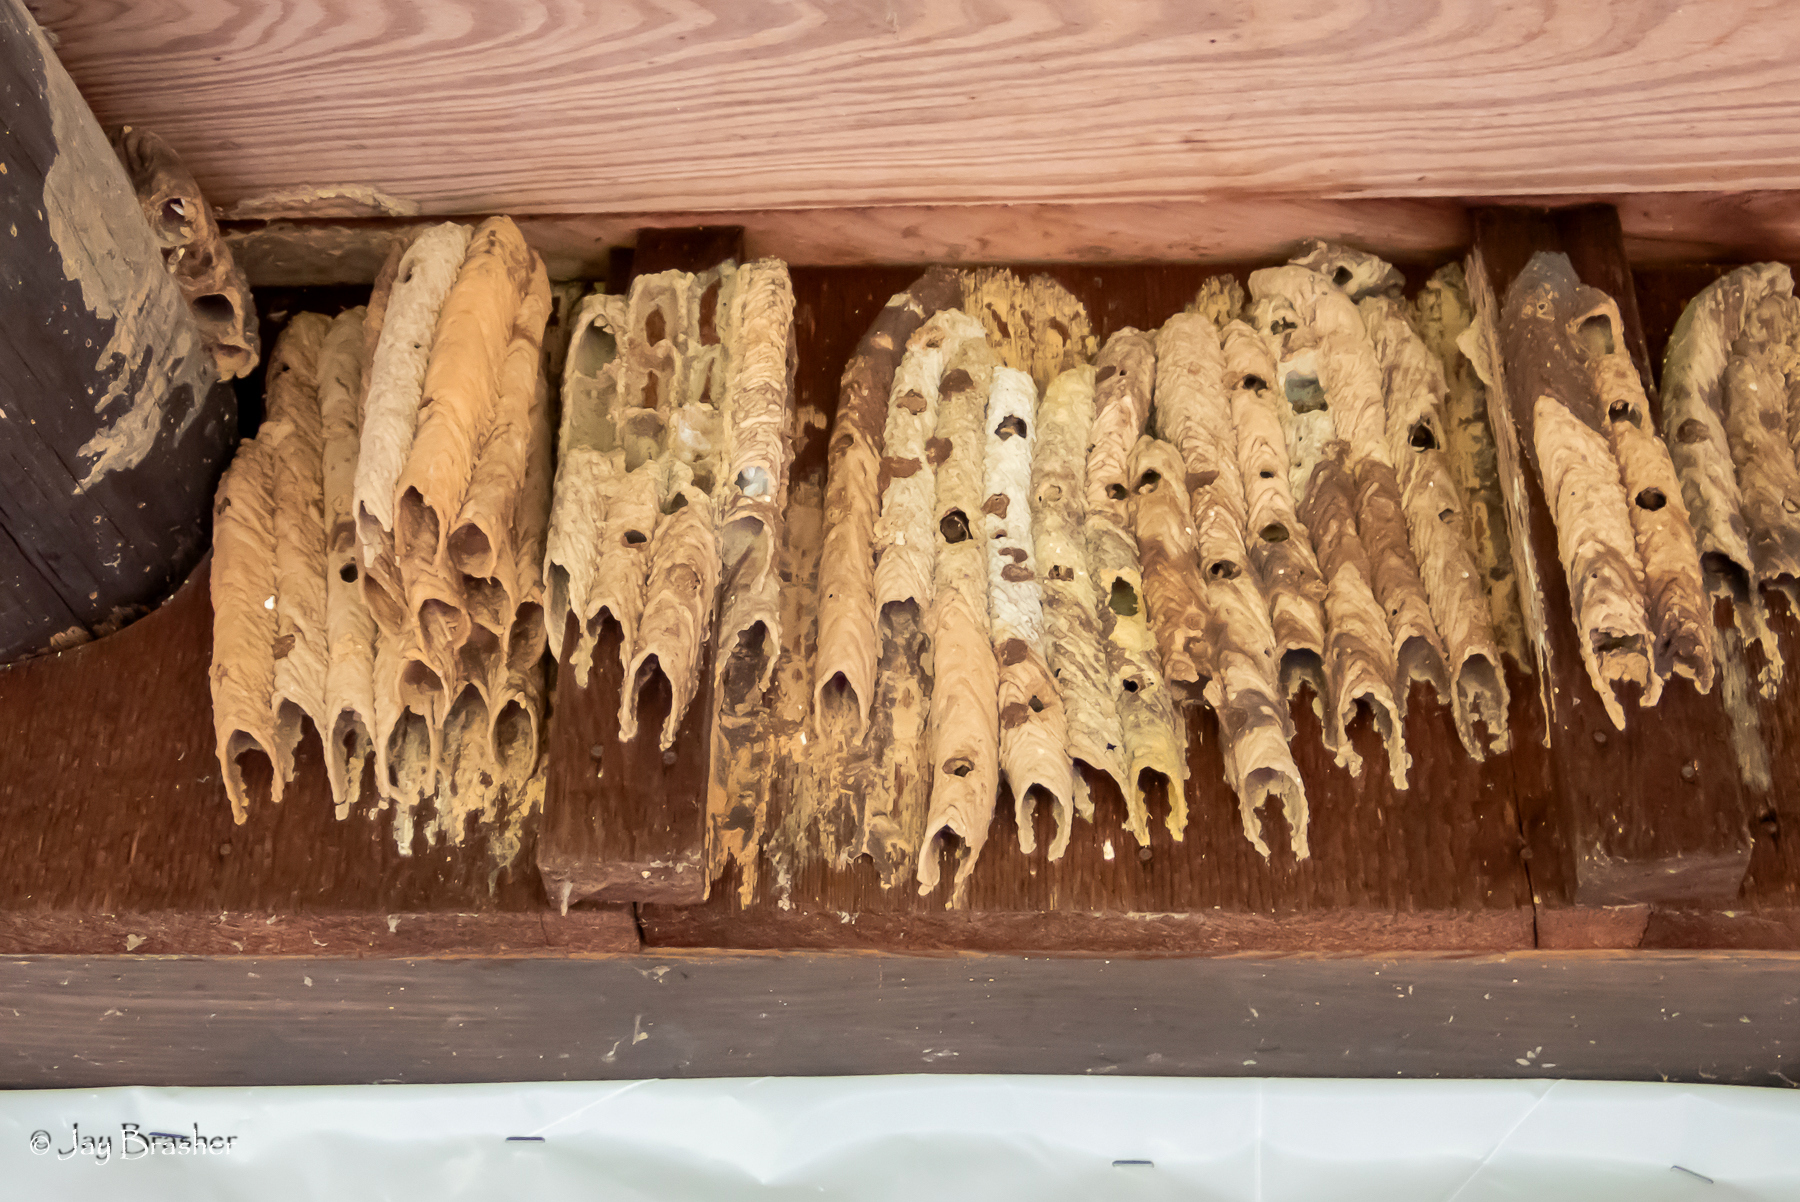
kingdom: Animalia
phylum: Arthropoda
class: Insecta
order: Hymenoptera
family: Crabronidae
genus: Trypoxylon
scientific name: Trypoxylon politum
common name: Organ-pipe mud-dauber wasp
